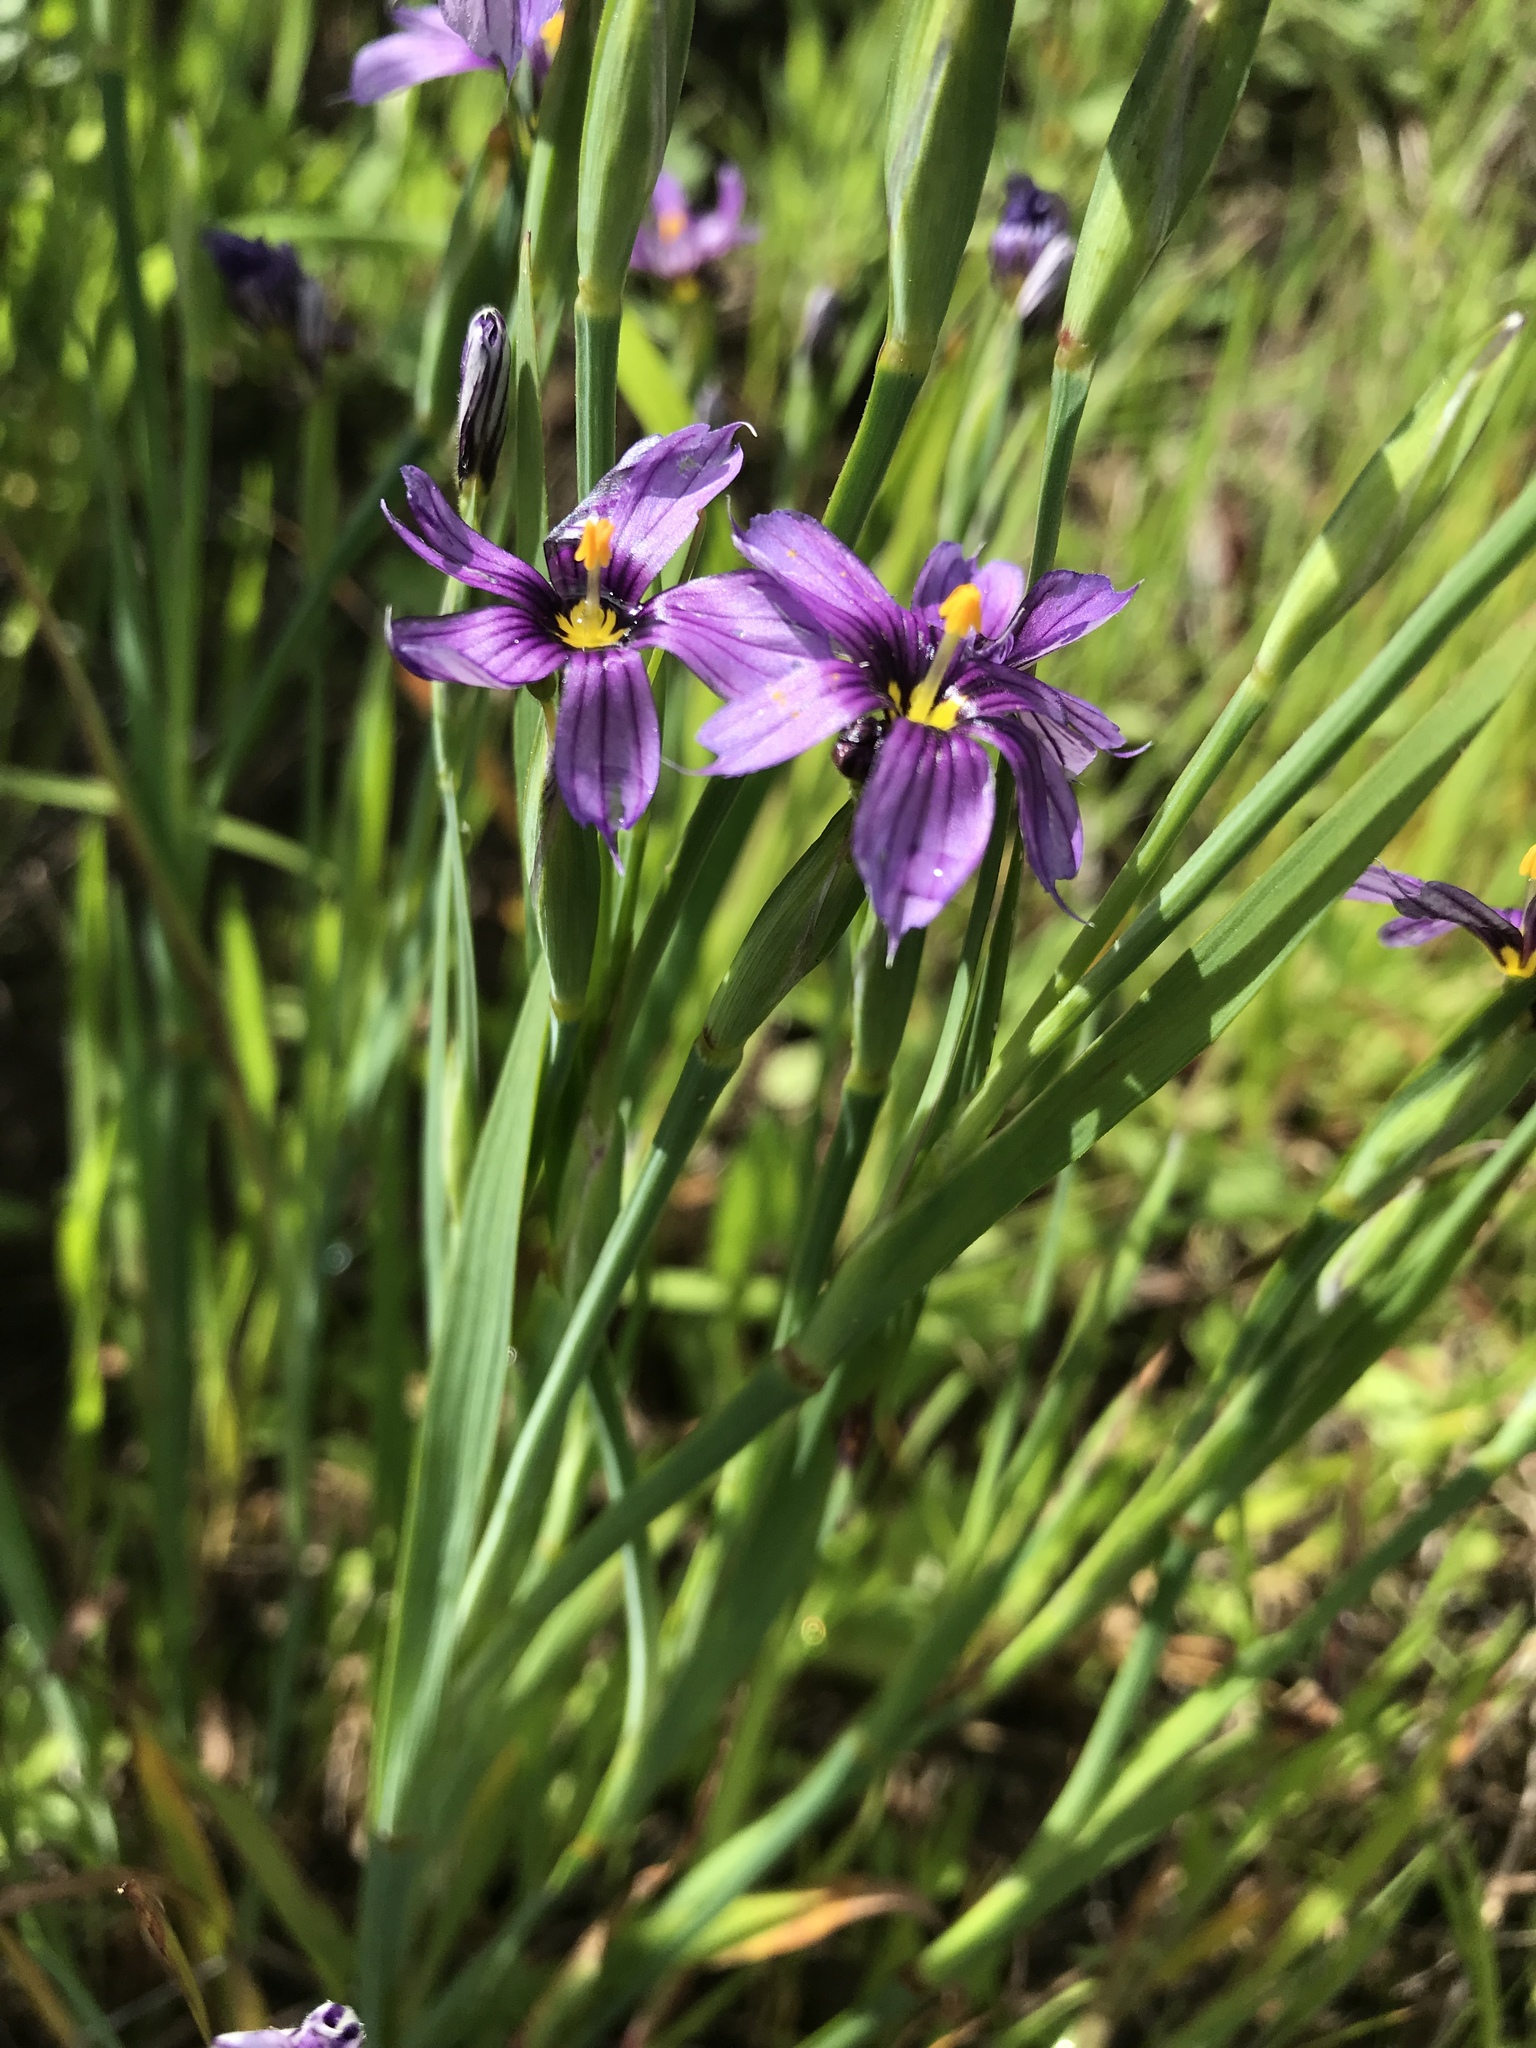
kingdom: Plantae
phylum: Tracheophyta
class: Liliopsida
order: Asparagales
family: Iridaceae
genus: Sisyrinchium
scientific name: Sisyrinchium bellum
